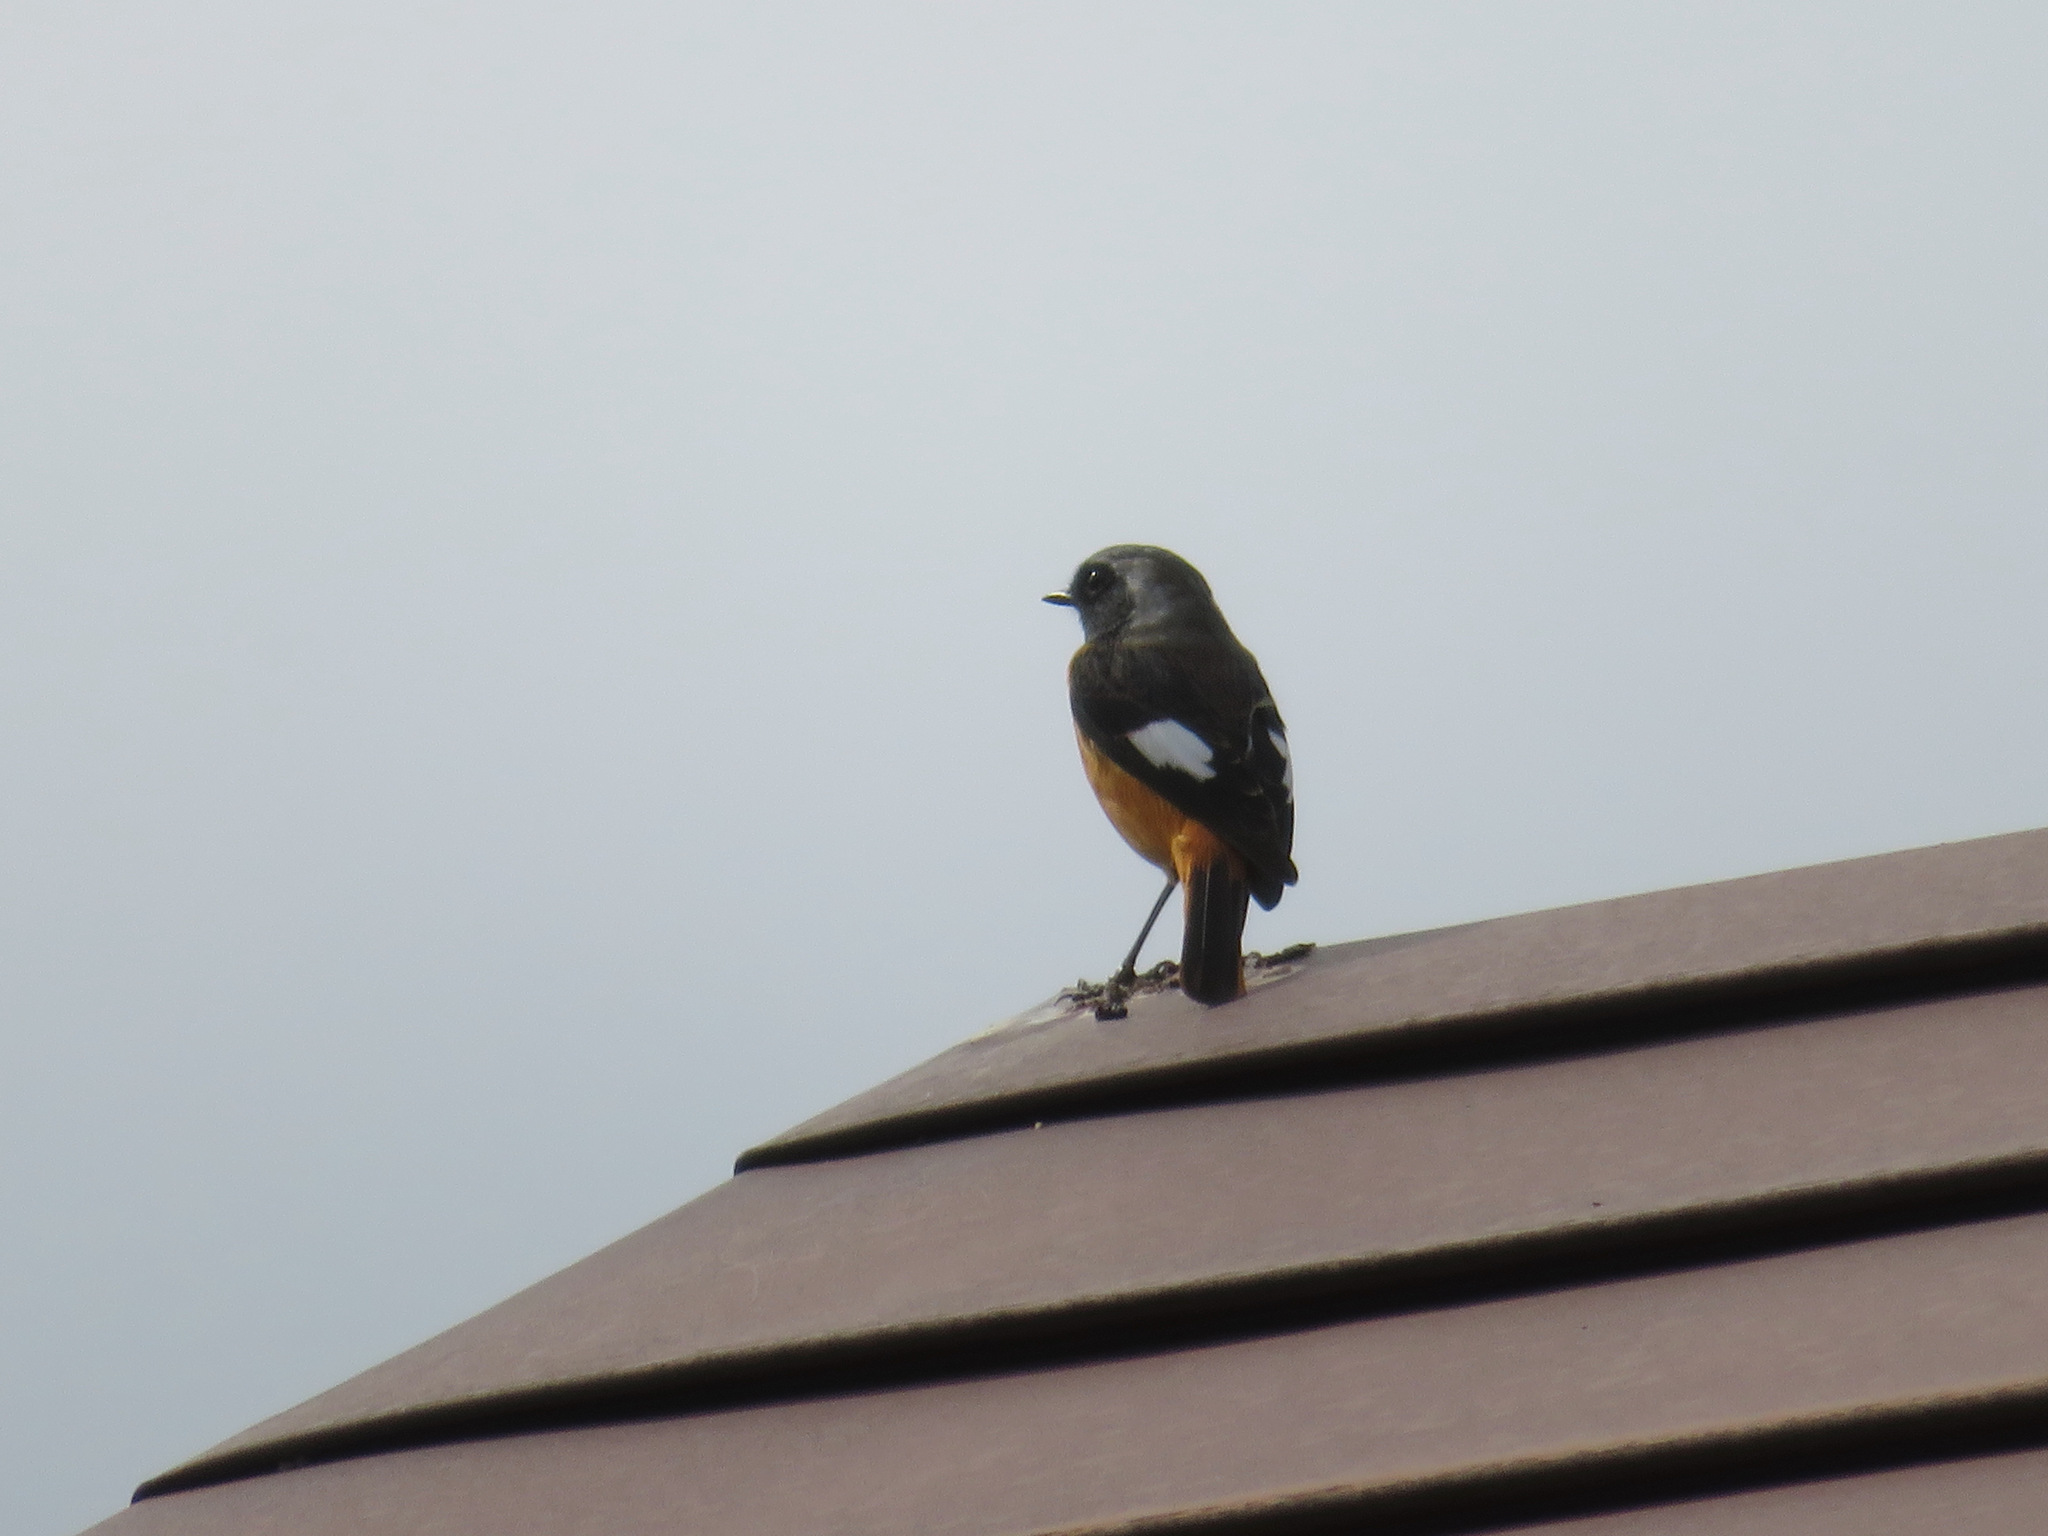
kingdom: Animalia
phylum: Chordata
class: Aves
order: Passeriformes
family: Muscicapidae
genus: Phoenicurus
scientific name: Phoenicurus auroreus
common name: Daurian redstart
